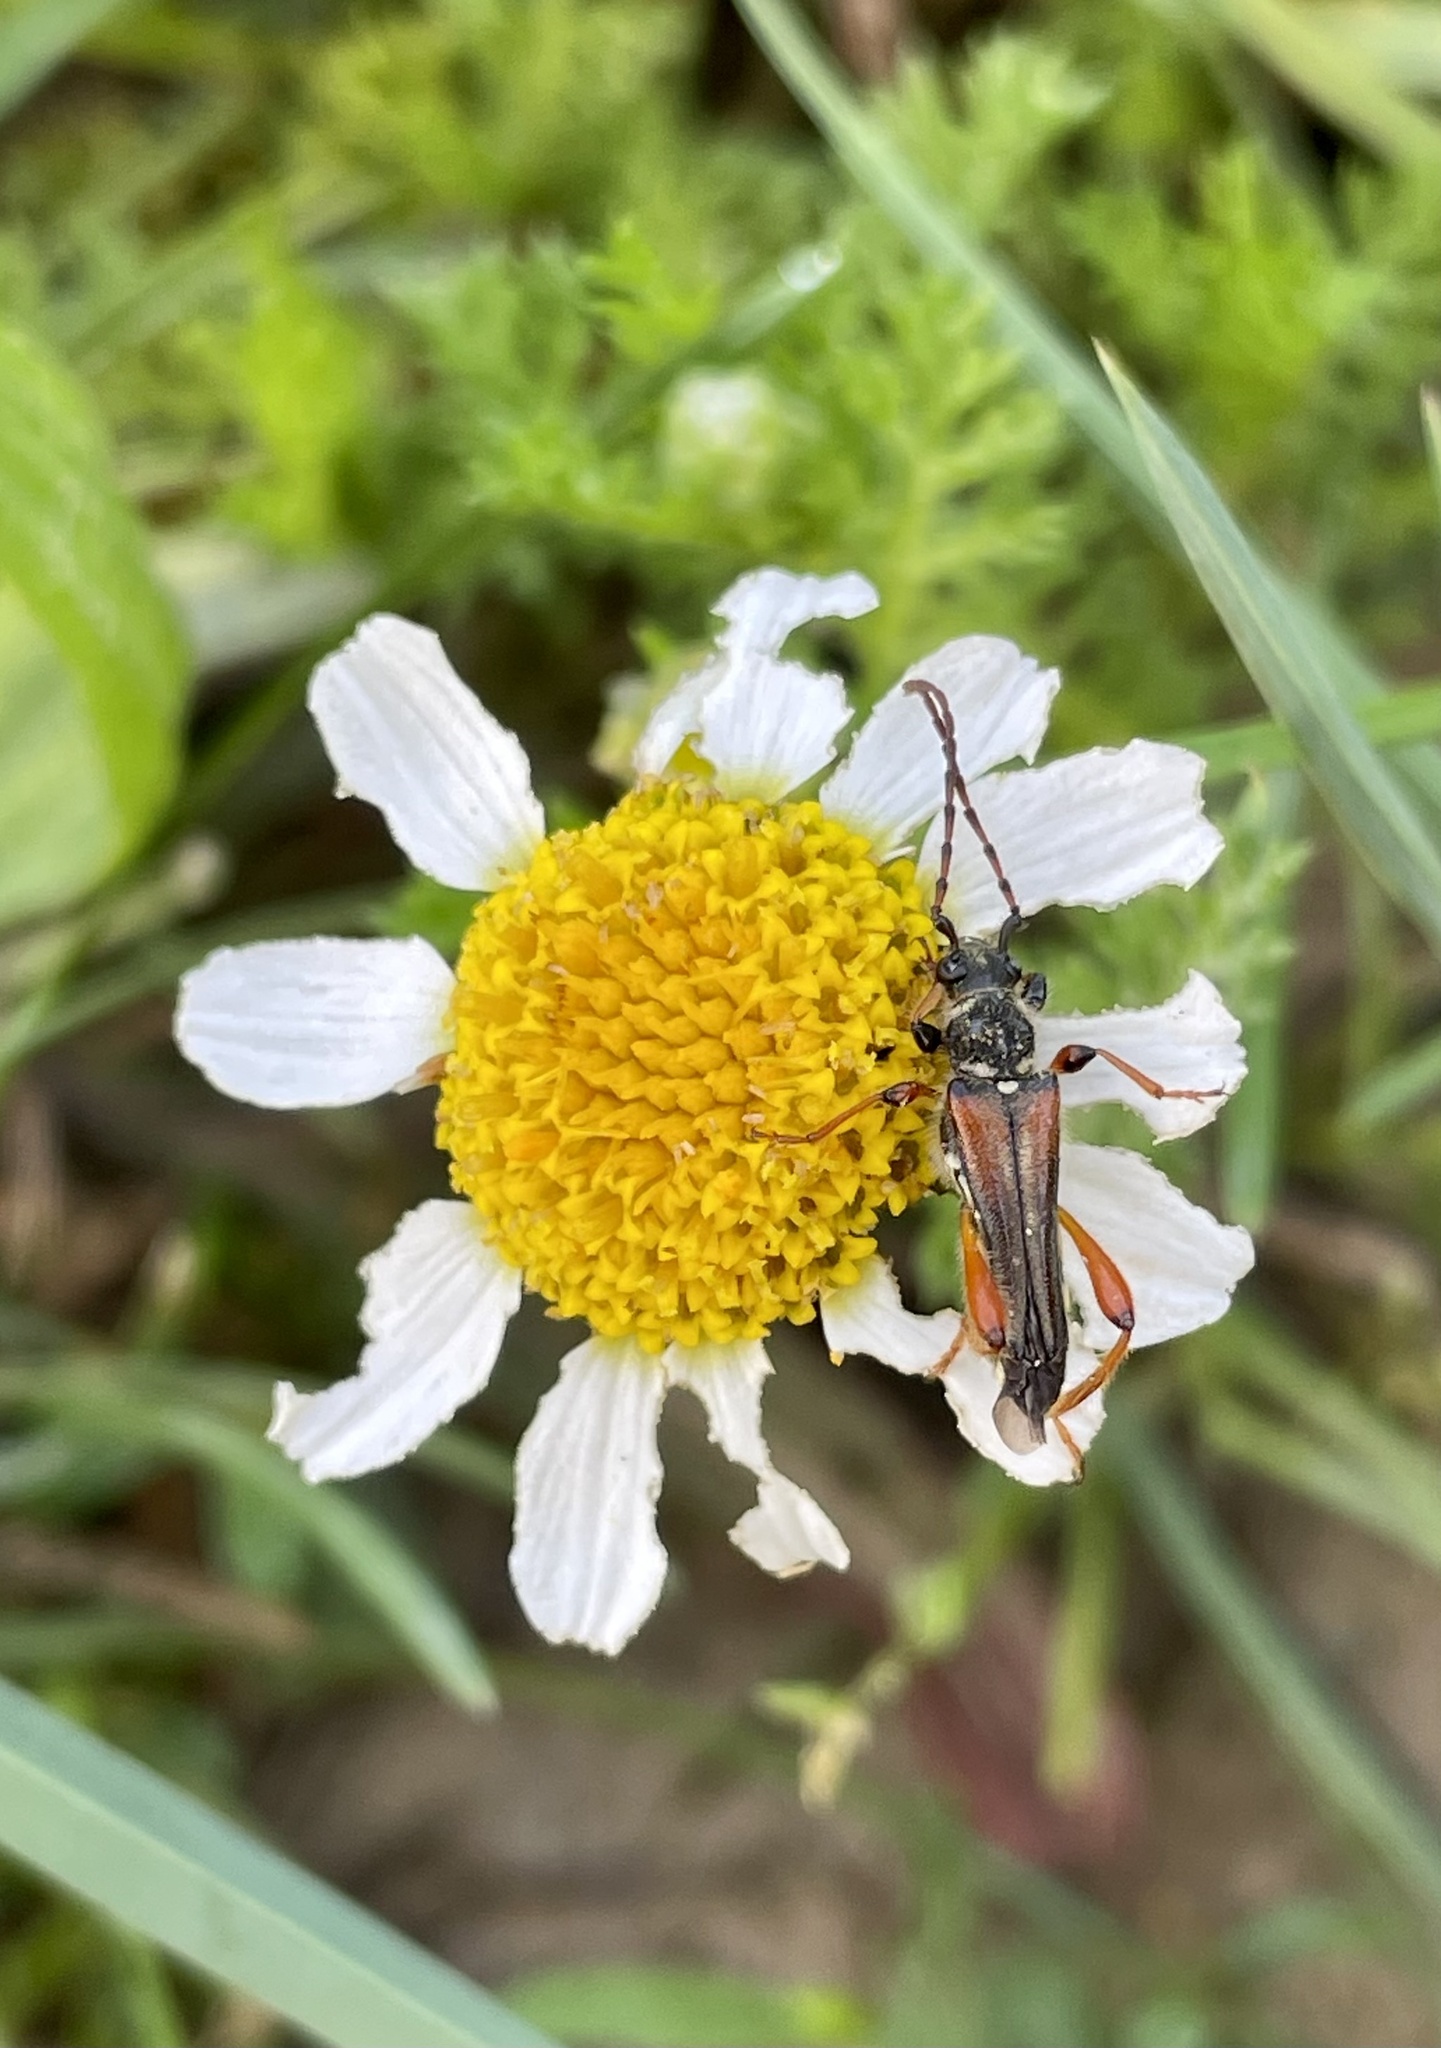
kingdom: Animalia
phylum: Arthropoda
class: Insecta
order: Coleoptera
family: Cerambycidae
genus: Stenopterus
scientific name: Stenopterus rufus
